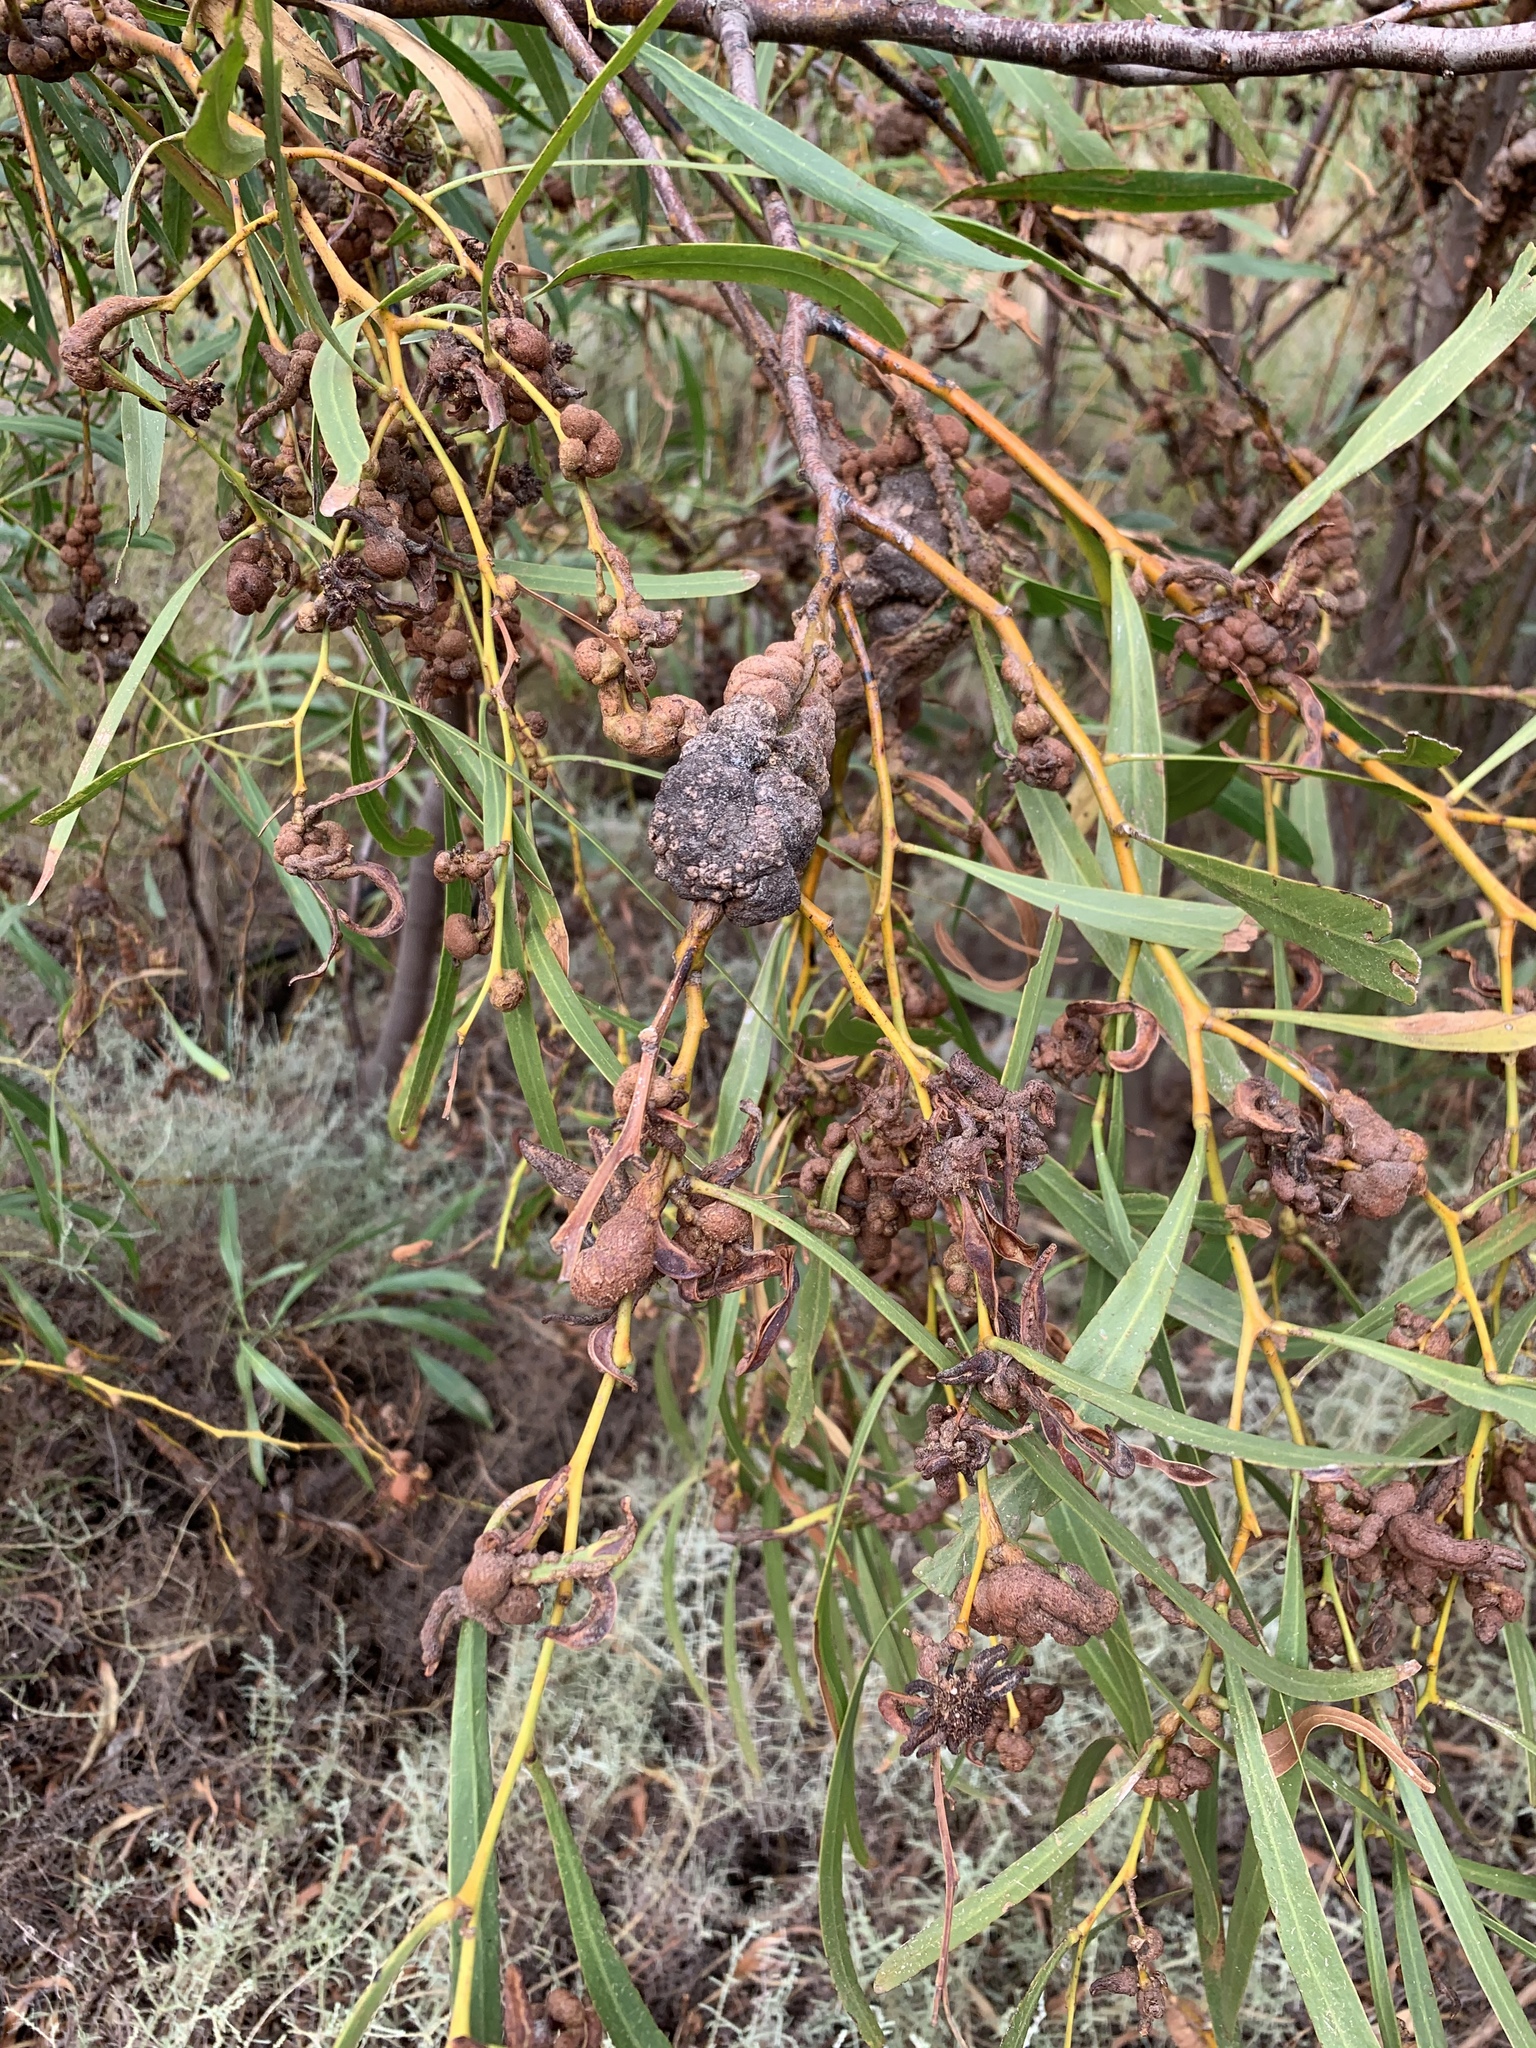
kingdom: Fungi
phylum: Basidiomycota
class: Pucciniomycetes
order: Pucciniales
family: Uromycladiaceae
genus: Uromycladium
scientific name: Uromycladium morrisii
